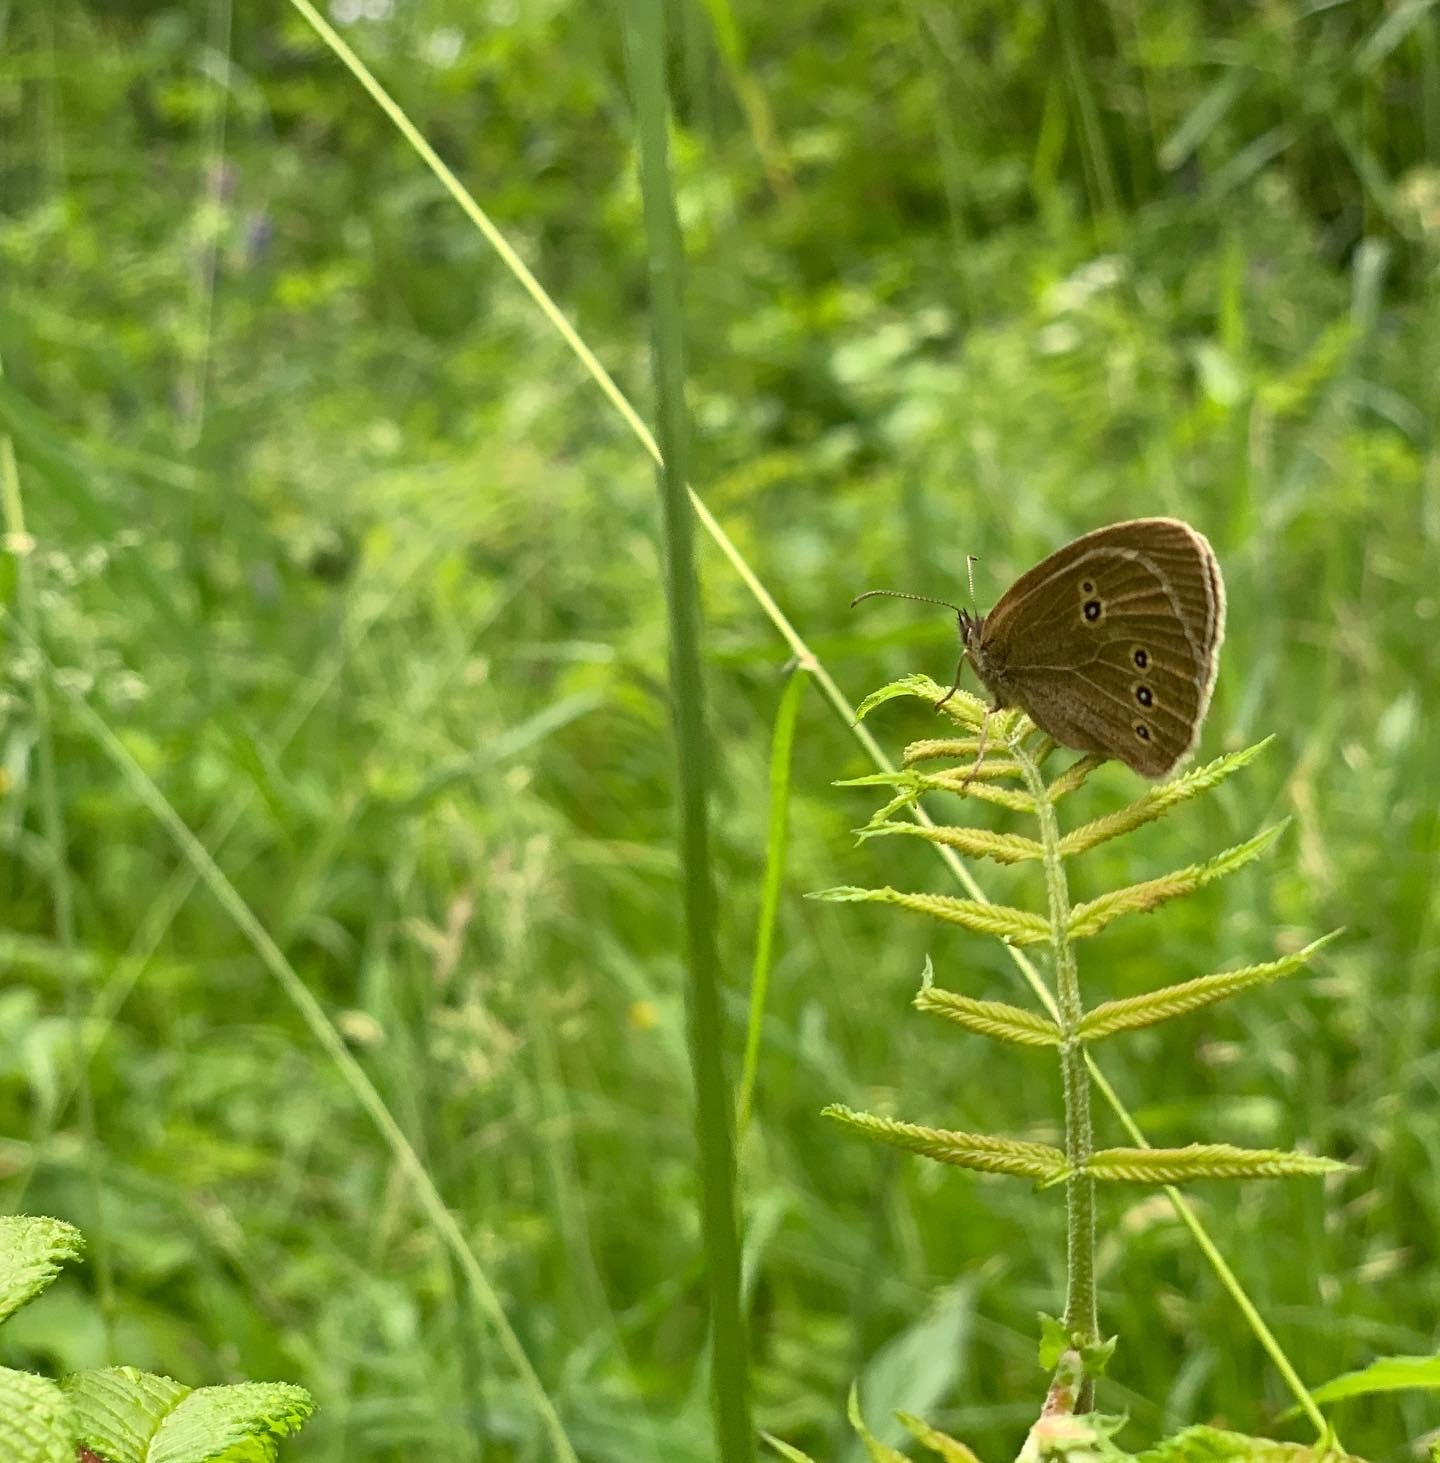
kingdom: Animalia
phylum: Arthropoda
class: Insecta
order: Lepidoptera
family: Nymphalidae
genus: Aphantopus
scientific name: Aphantopus hyperantus
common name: Ringlet
